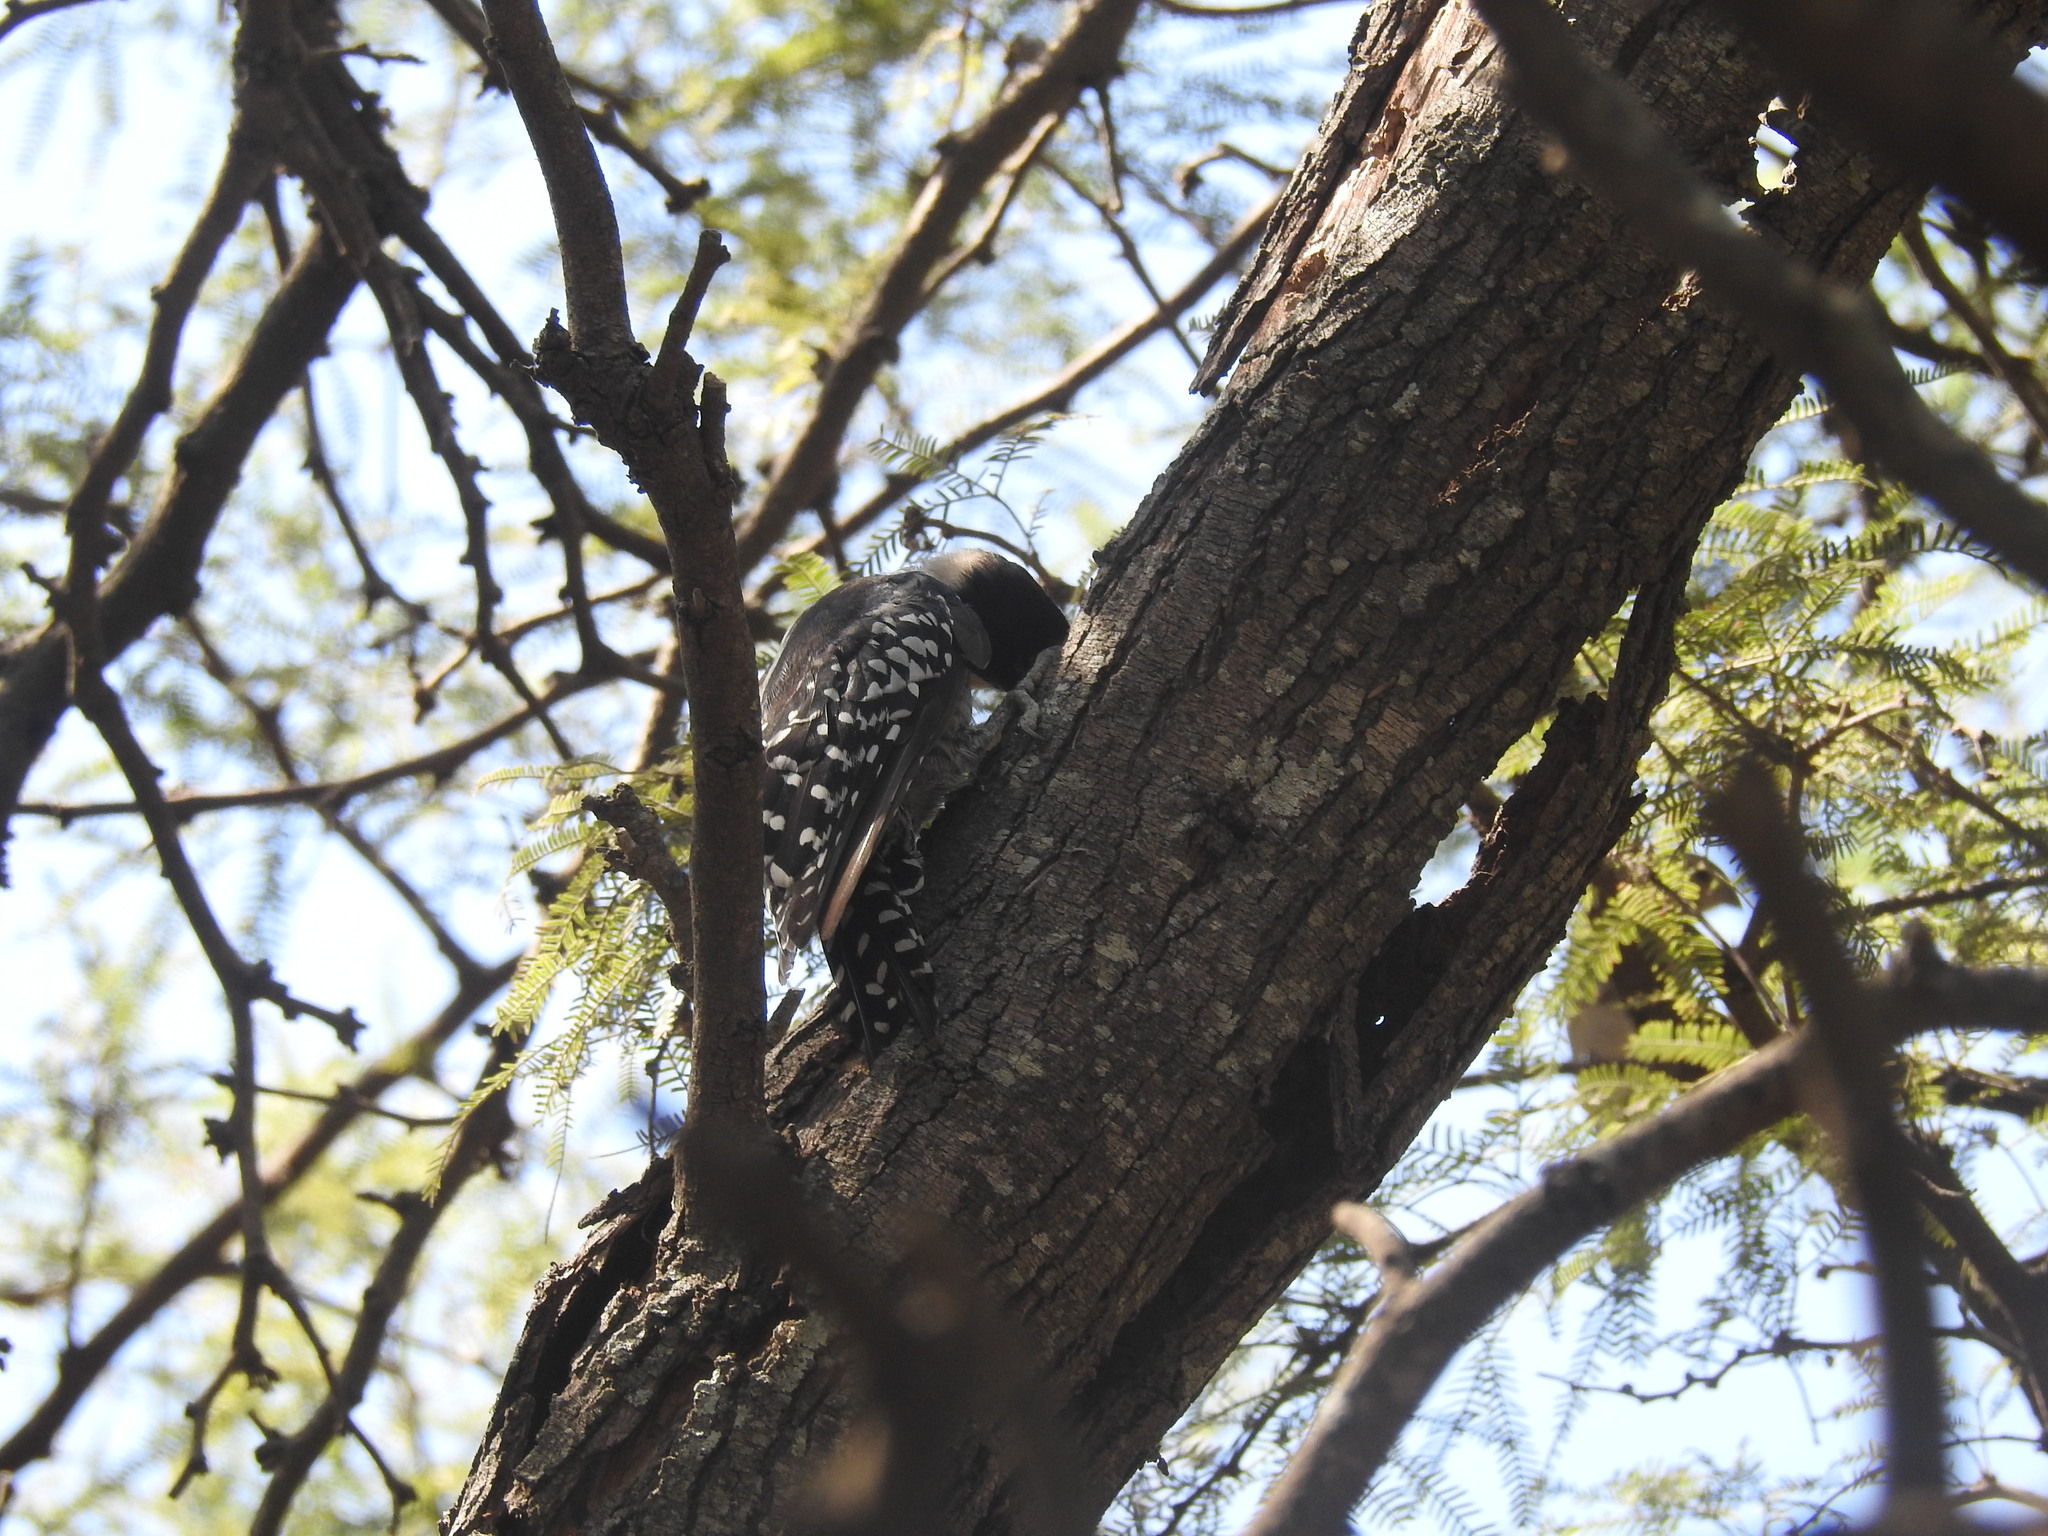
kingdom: Animalia
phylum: Chordata
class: Aves
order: Piciformes
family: Picidae
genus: Melanerpes
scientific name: Melanerpes cactorum
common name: White-fronted woodpecker
